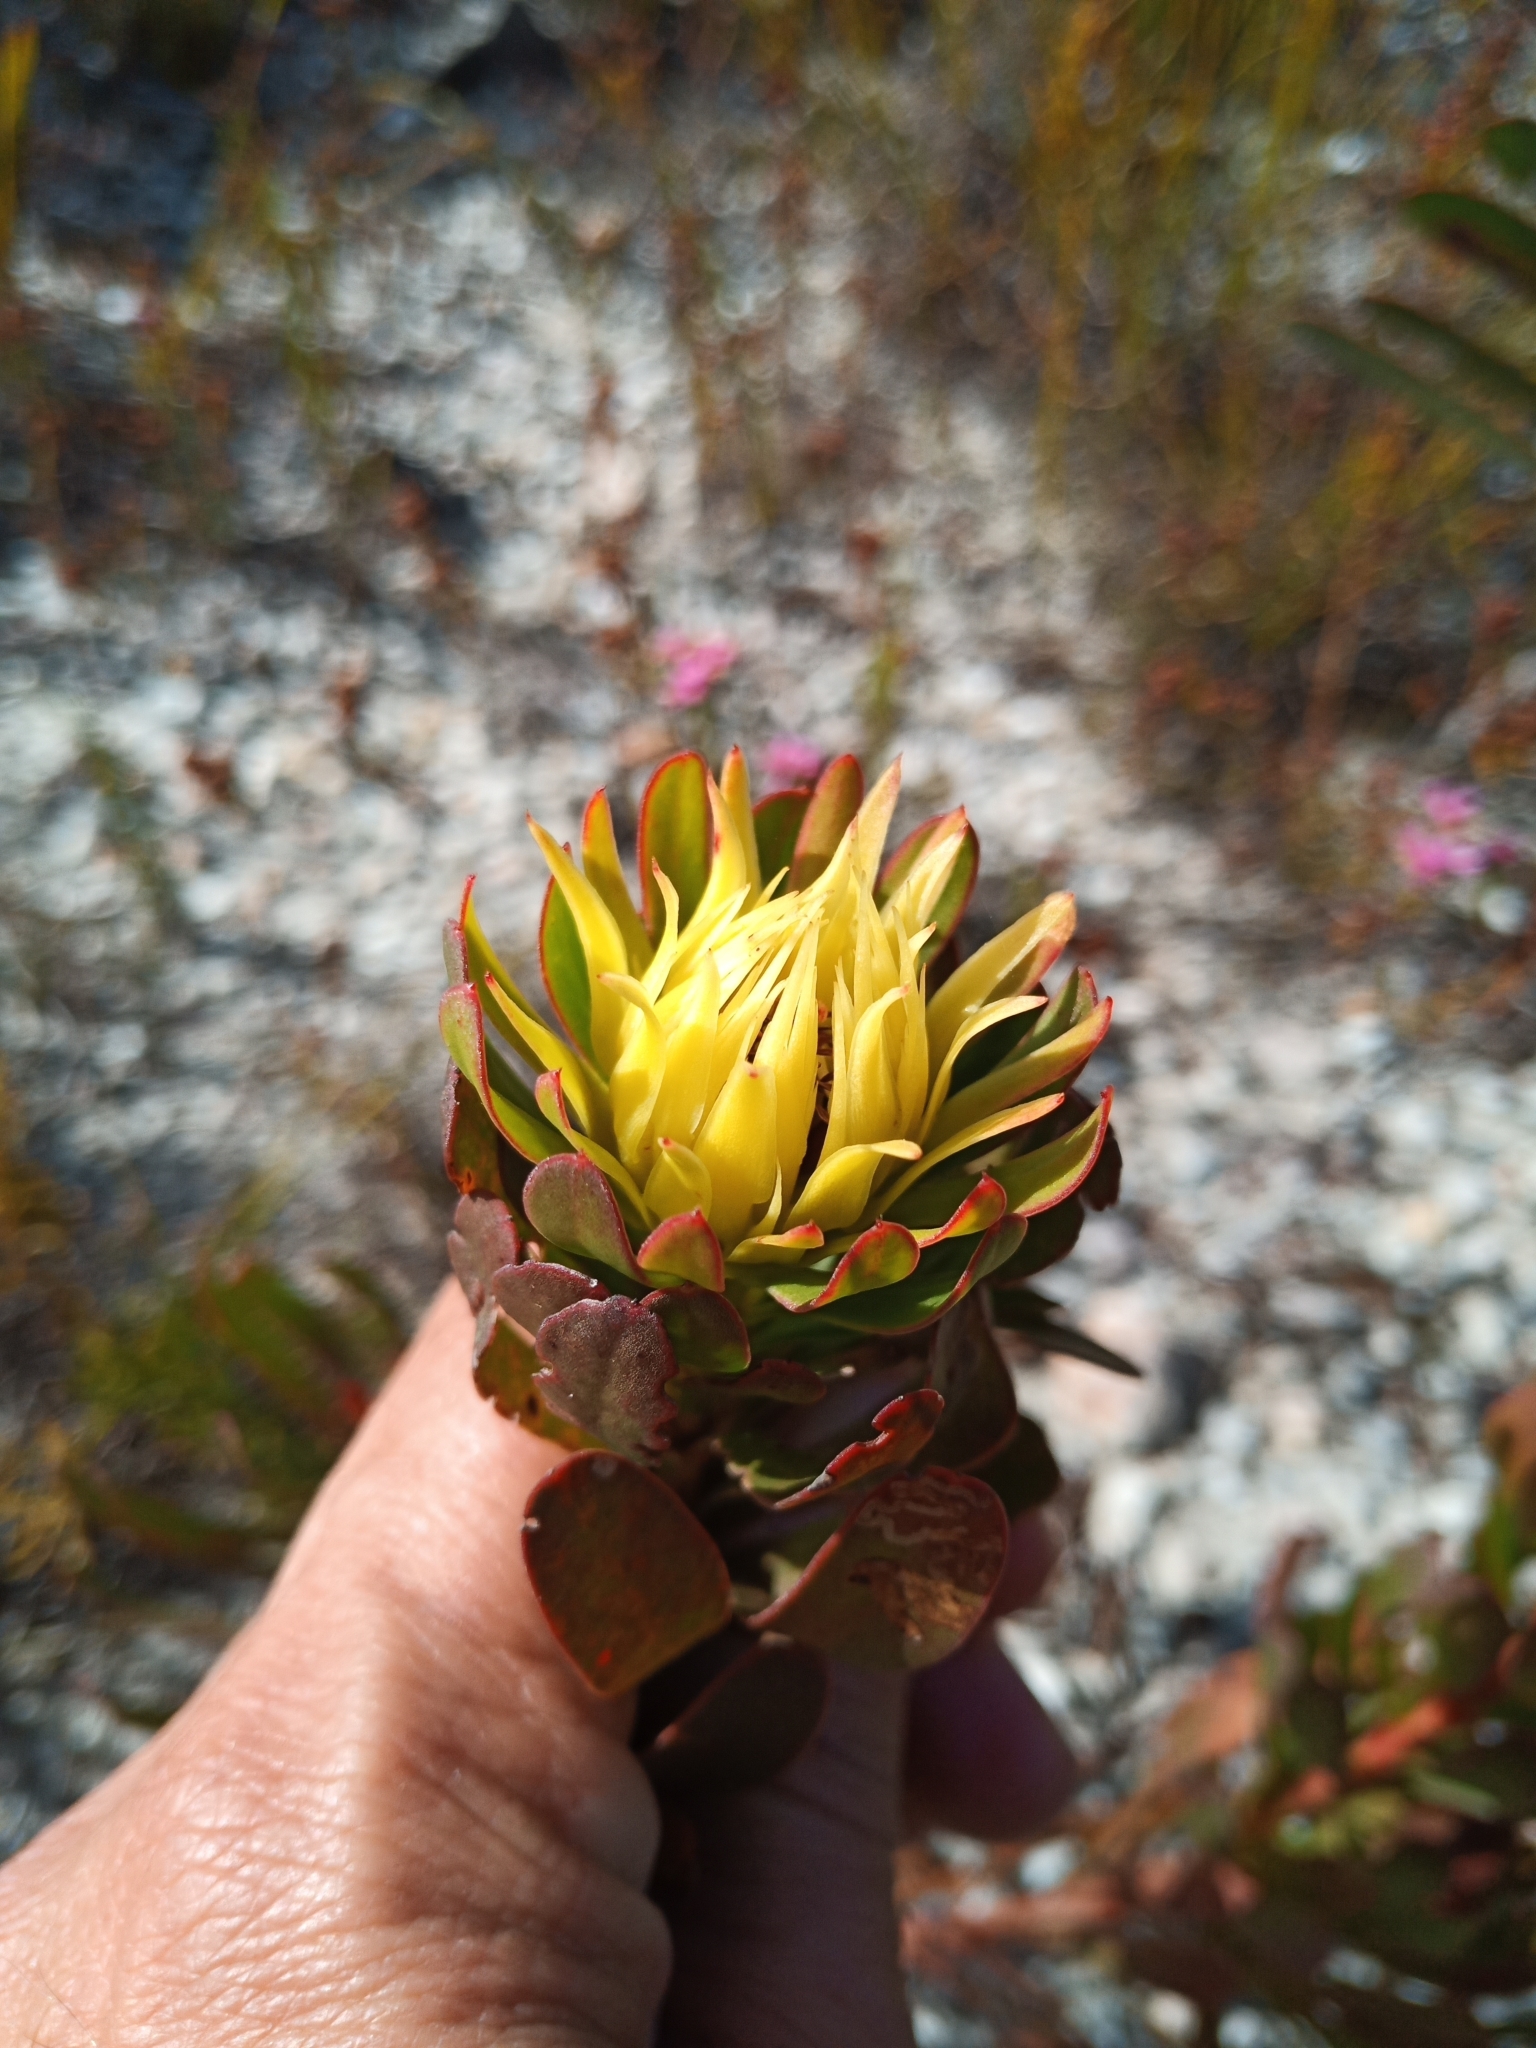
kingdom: Plantae
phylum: Tracheophyta
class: Magnoliopsida
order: Proteales
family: Proteaceae
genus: Aulax
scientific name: Aulax umbellata
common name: Broad-leaf featherbush
